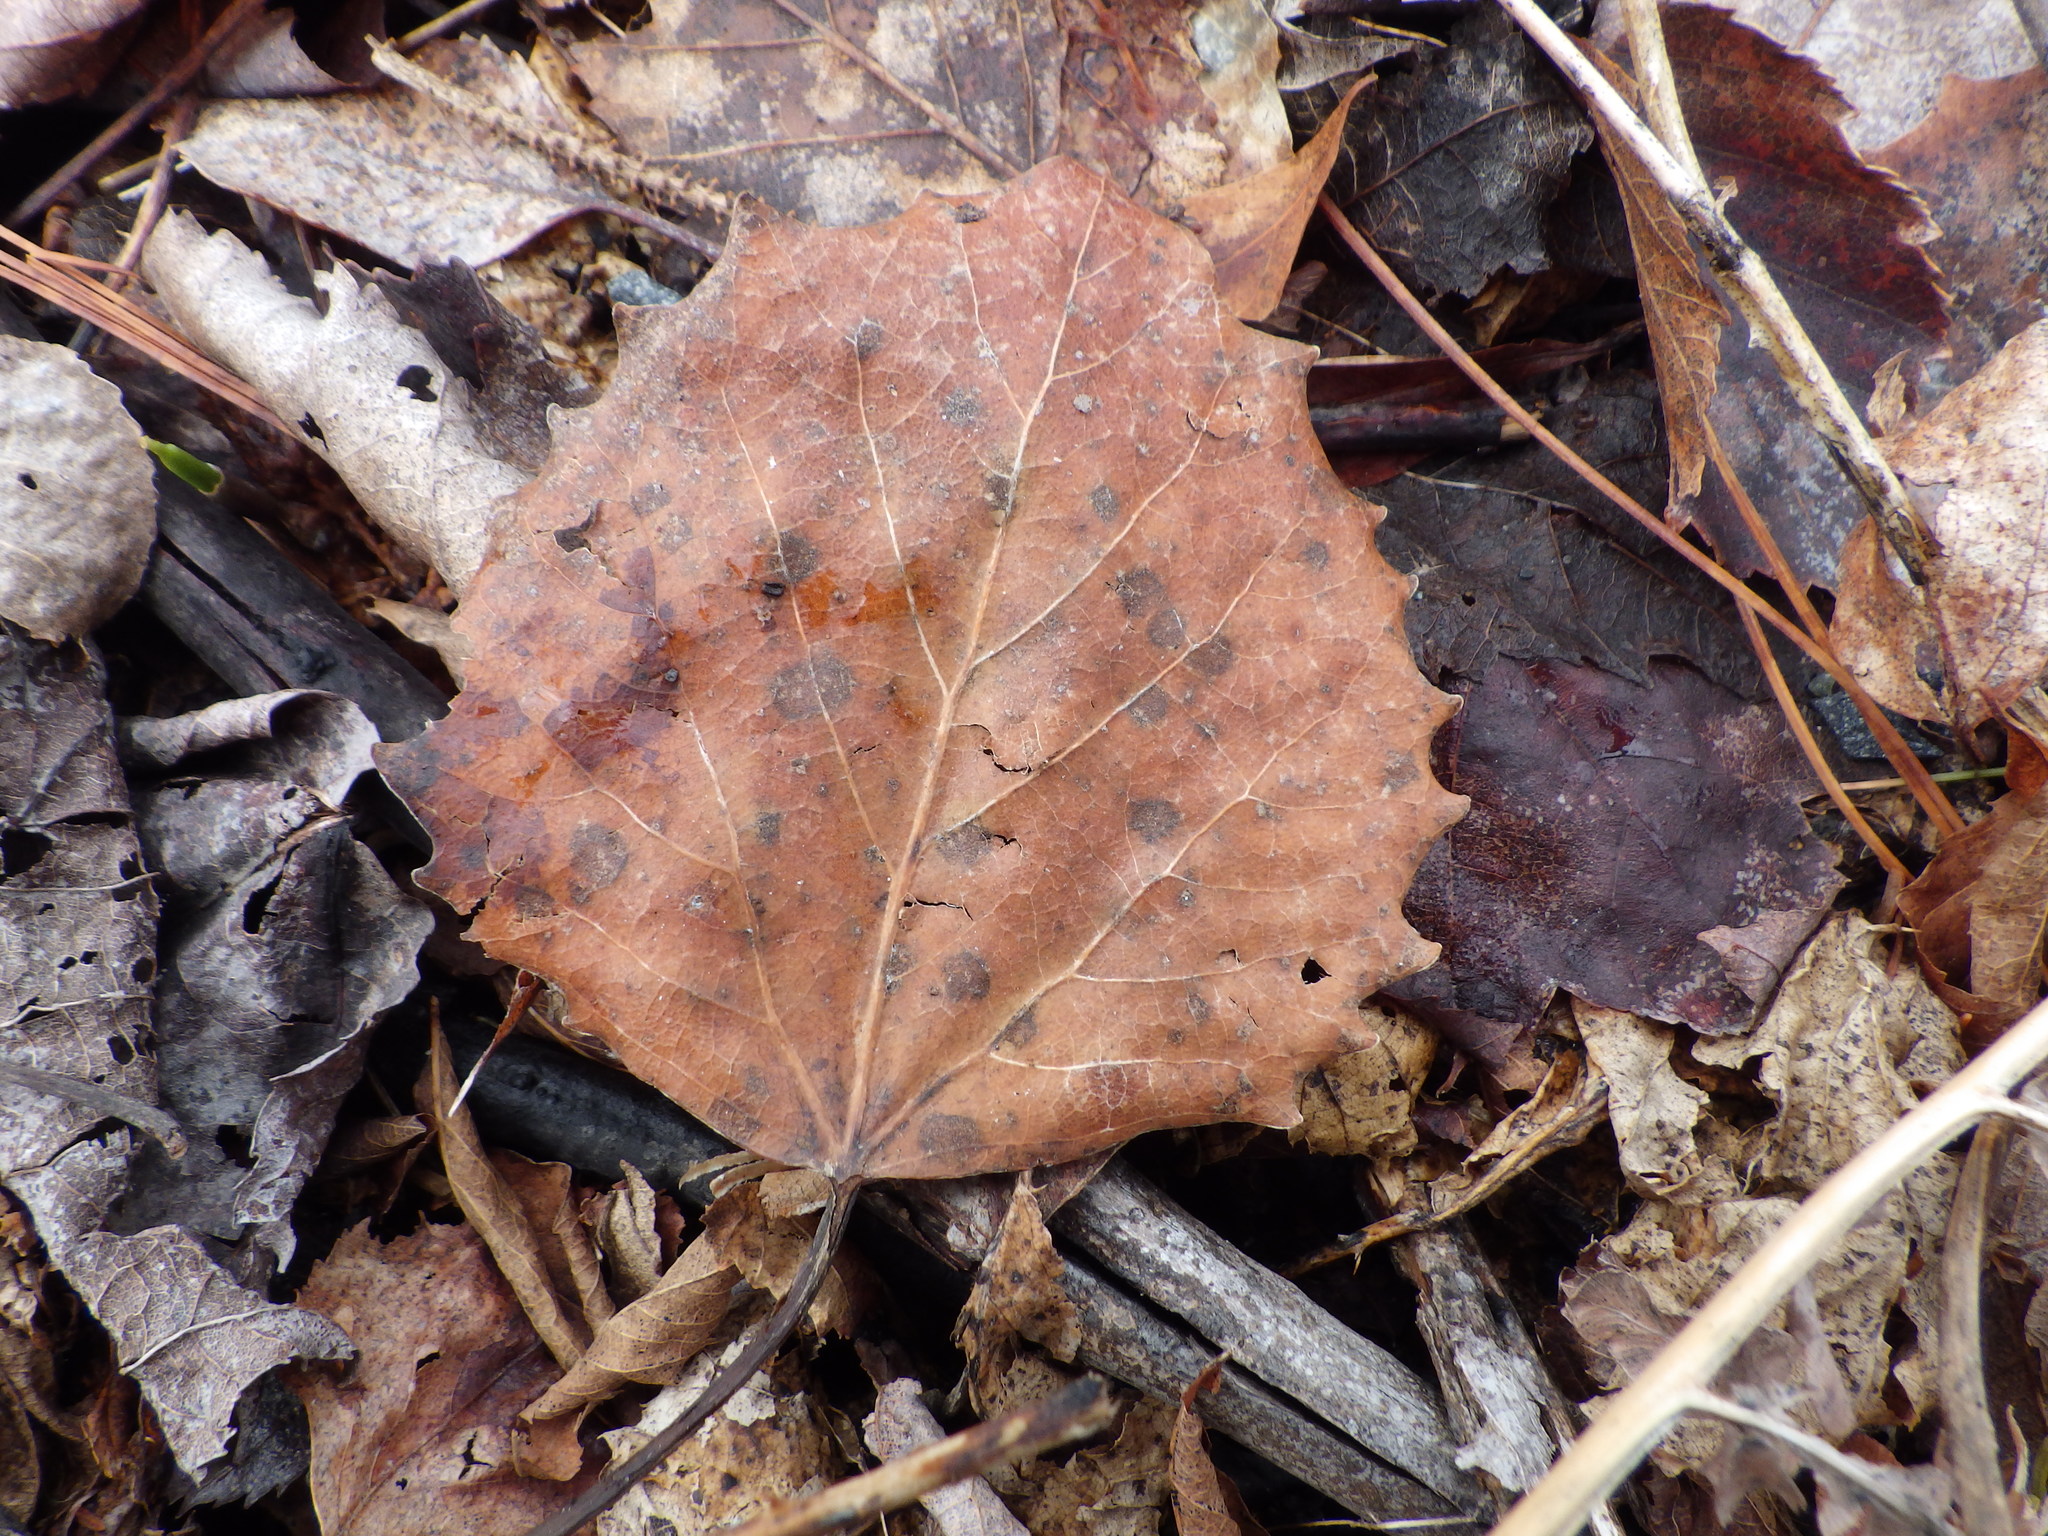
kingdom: Plantae
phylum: Tracheophyta
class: Magnoliopsida
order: Malpighiales
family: Salicaceae
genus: Populus
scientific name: Populus grandidentata
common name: Bigtooth aspen
